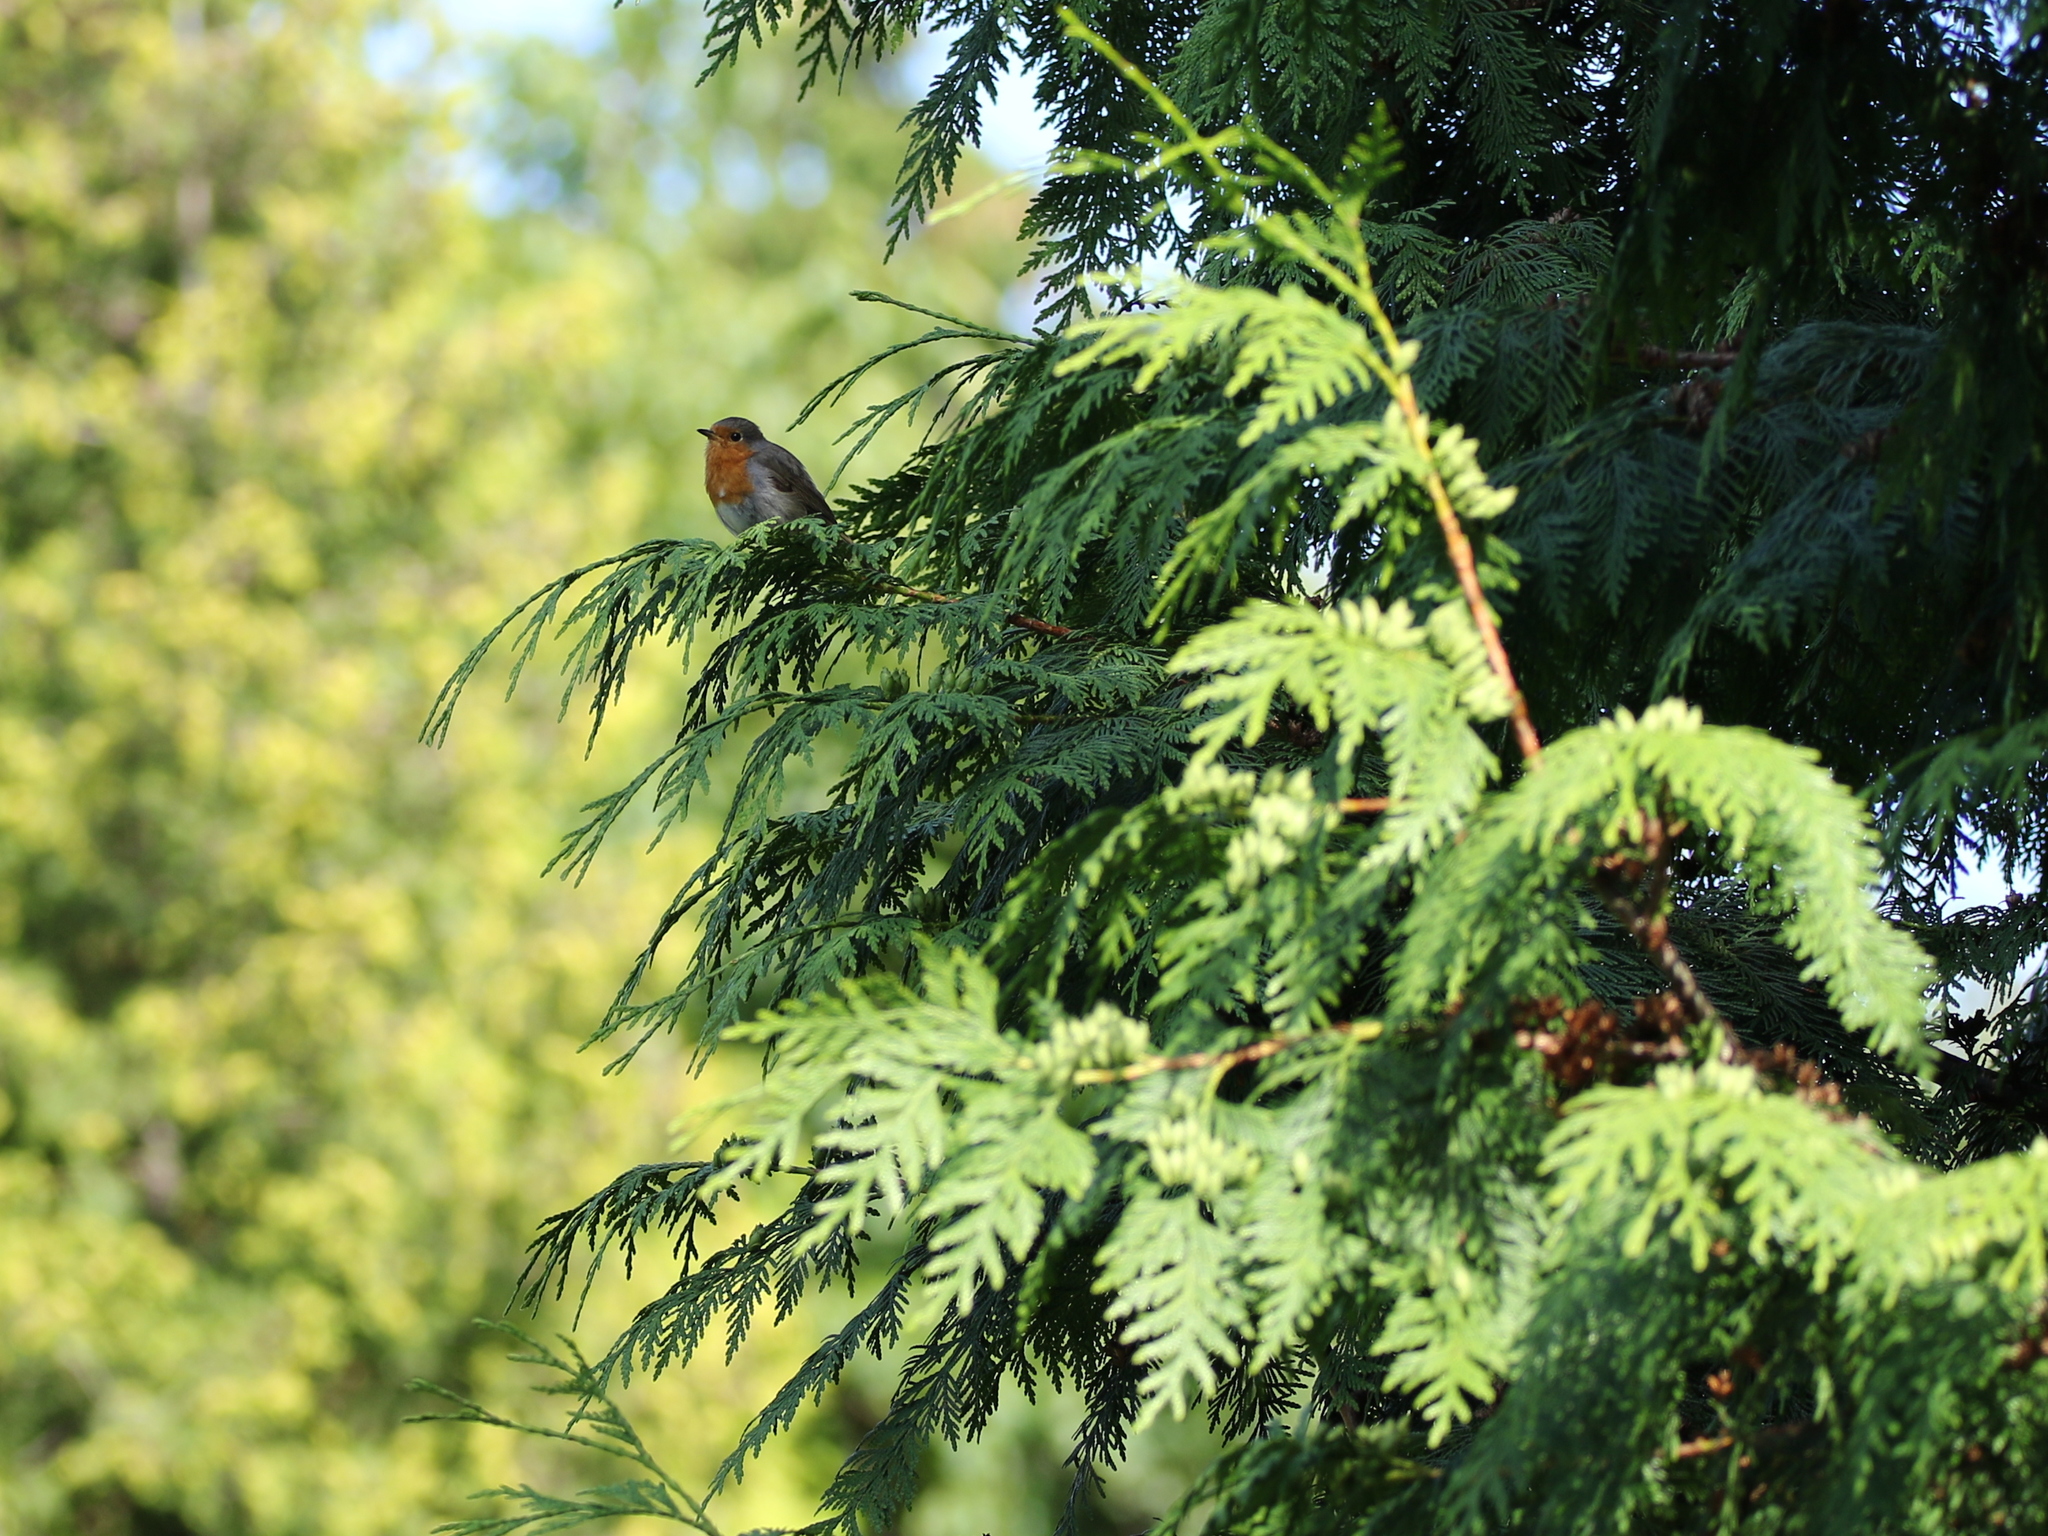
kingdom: Animalia
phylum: Chordata
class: Aves
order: Passeriformes
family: Muscicapidae
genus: Erithacus
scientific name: Erithacus rubecula
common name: European robin
